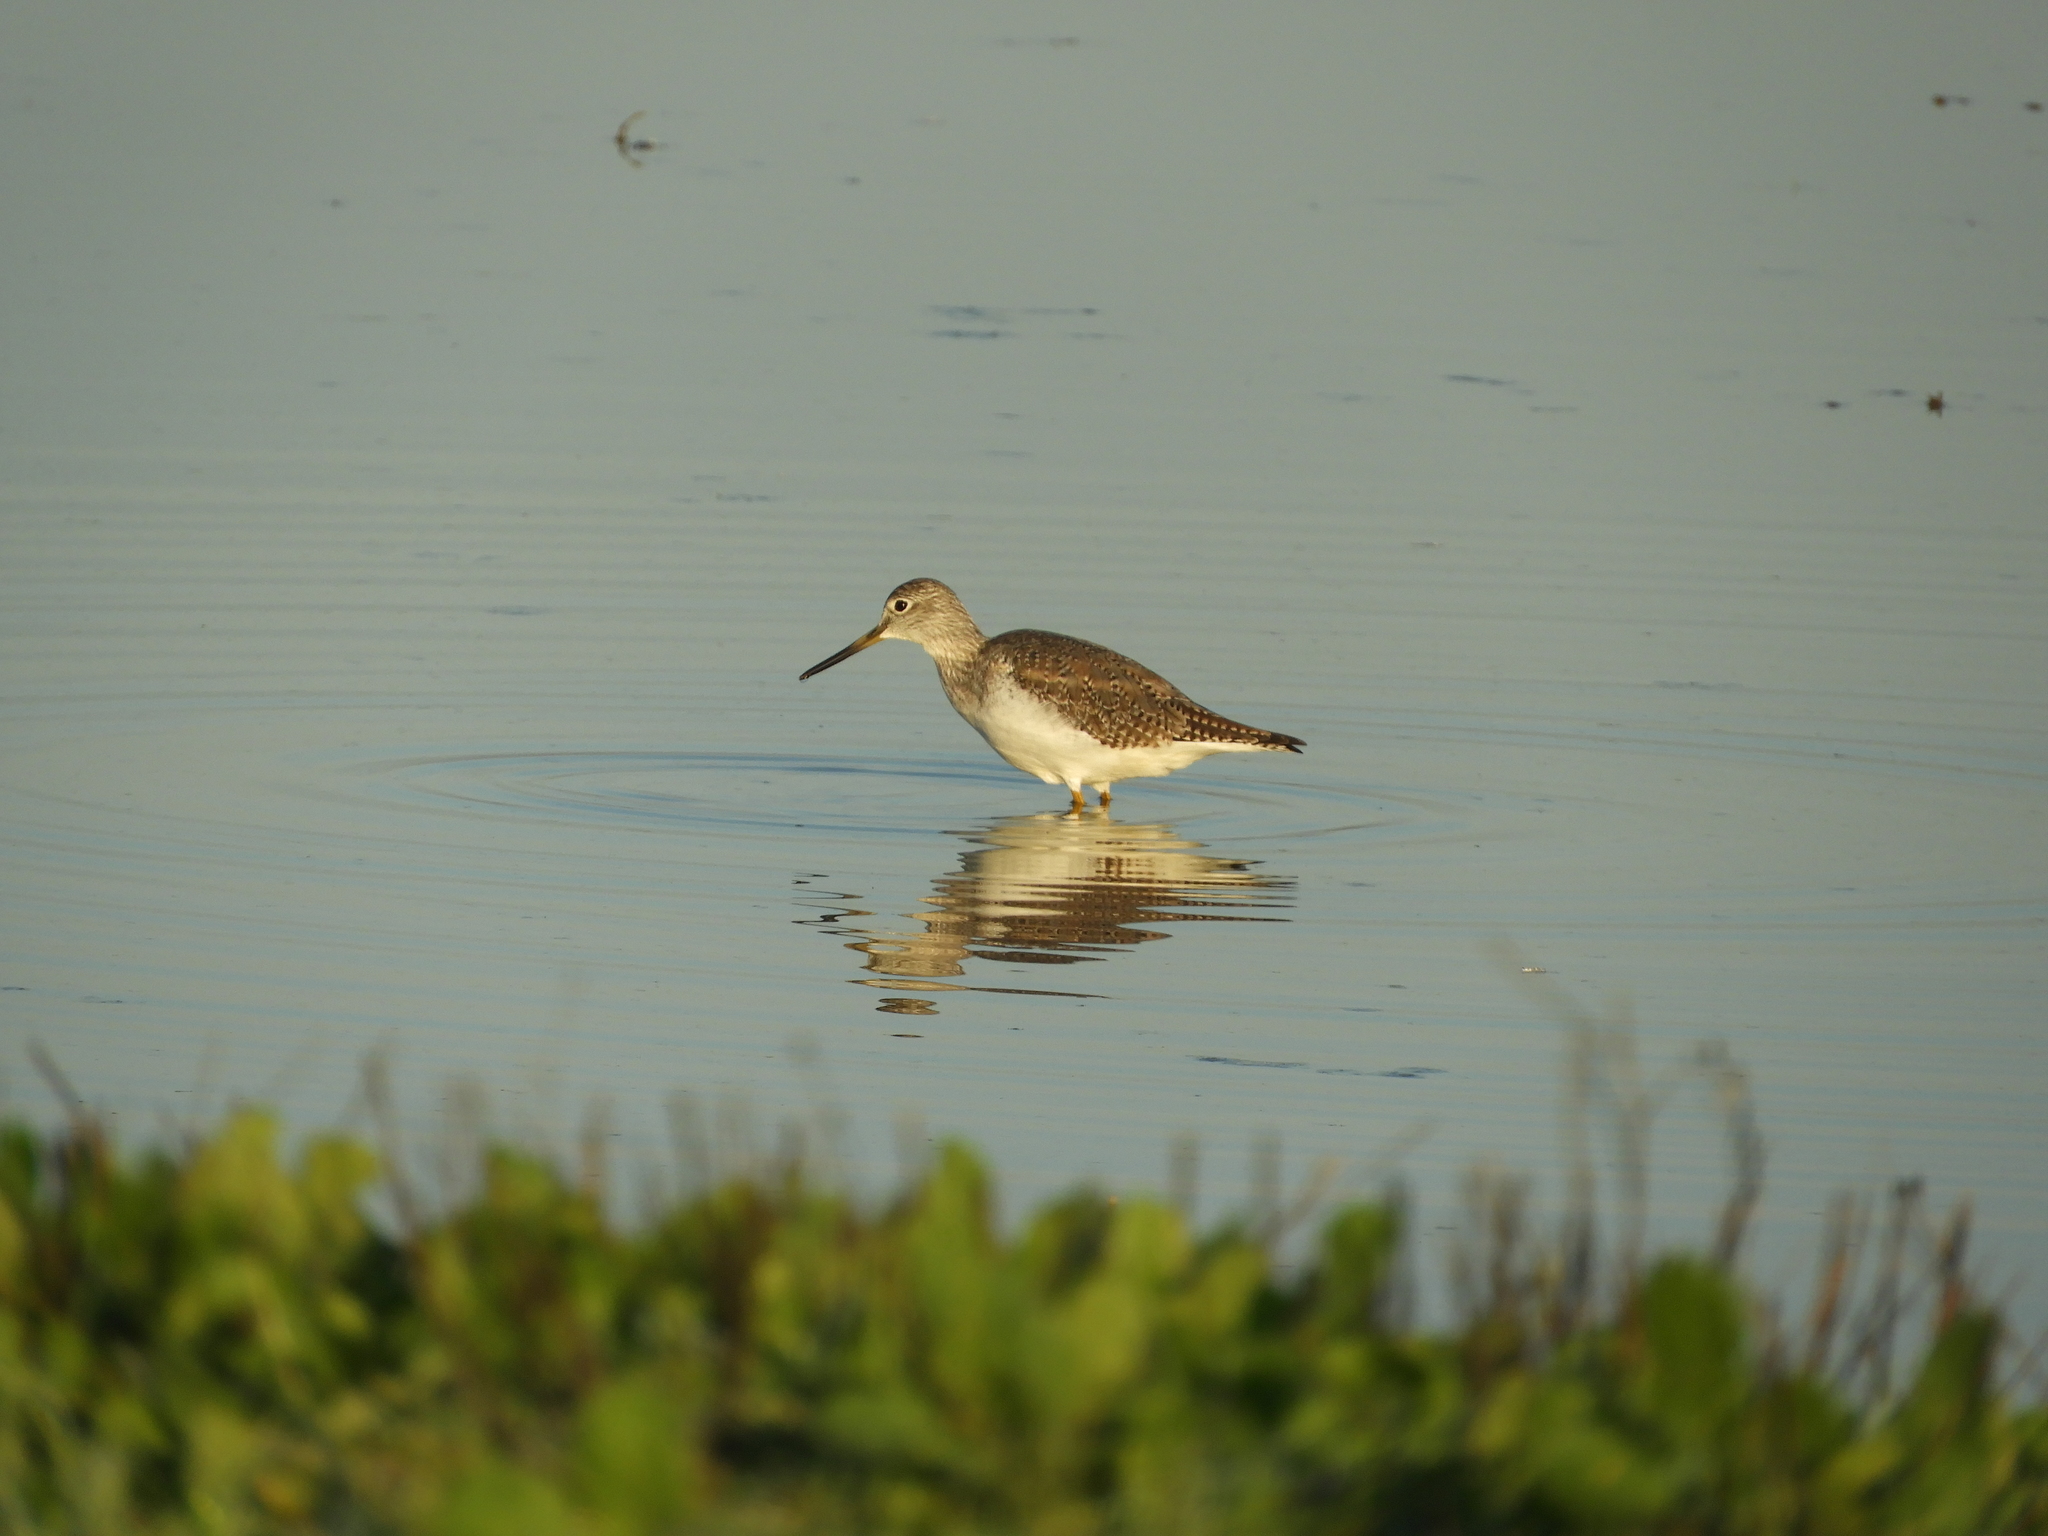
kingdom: Animalia
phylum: Chordata
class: Aves
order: Charadriiformes
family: Scolopacidae
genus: Tringa
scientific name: Tringa melanoleuca
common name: Greater yellowlegs
